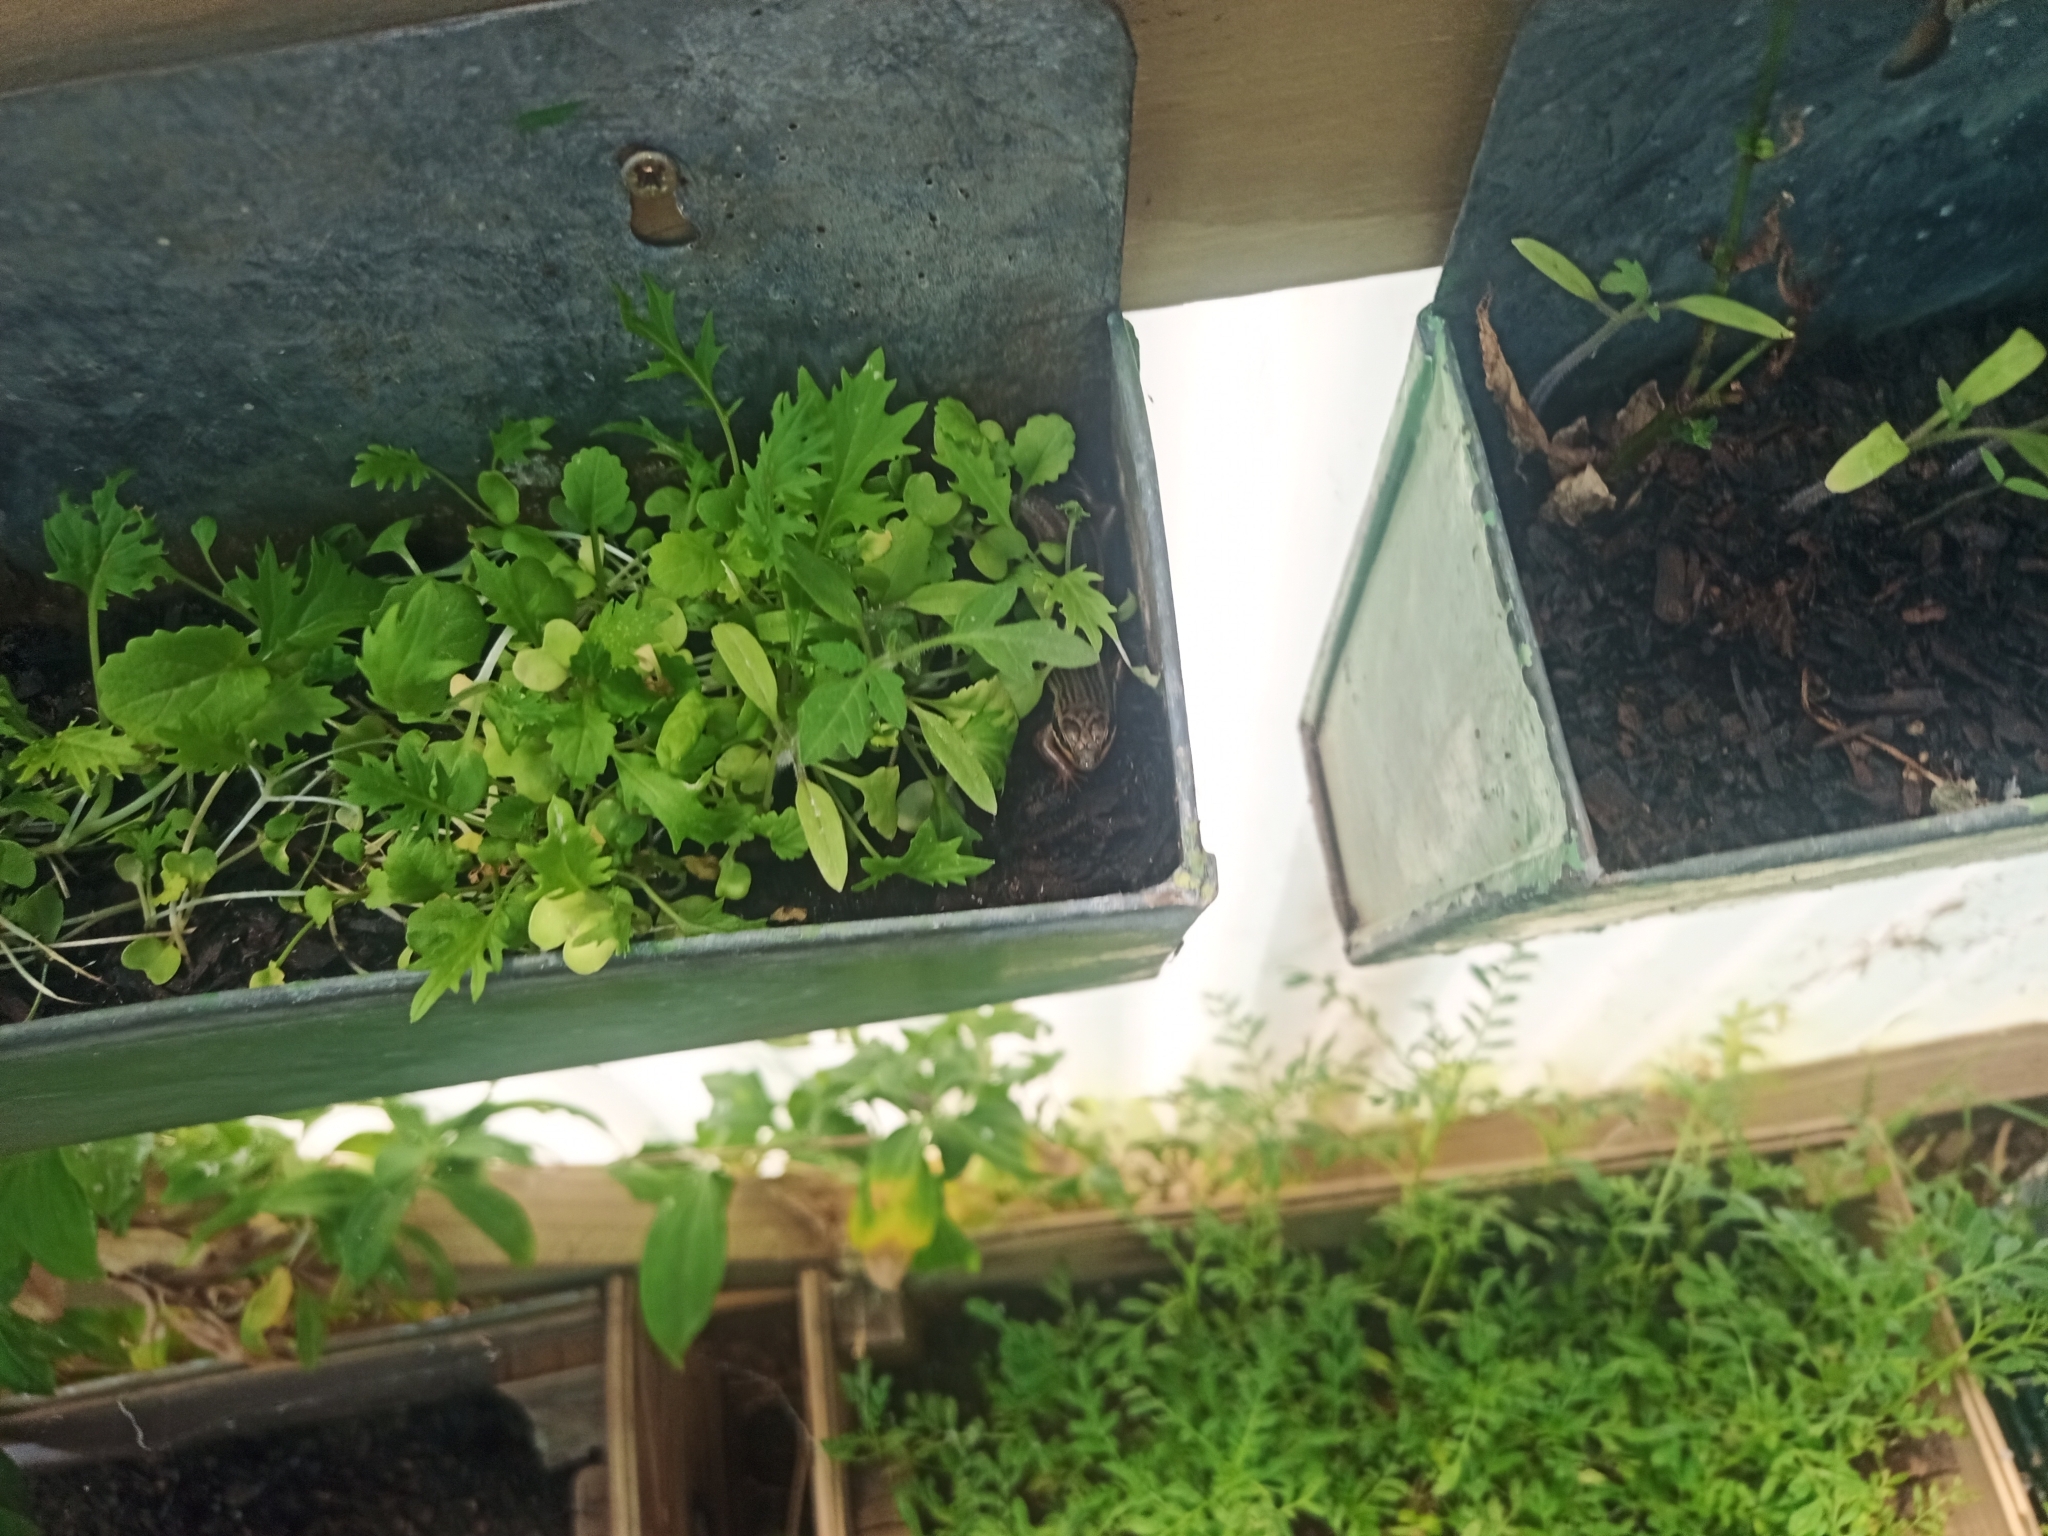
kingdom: Animalia
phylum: Chordata
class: Squamata
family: Scincidae
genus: Trachylepis
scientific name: Trachylepis homalocephala
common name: Red-sided skink
